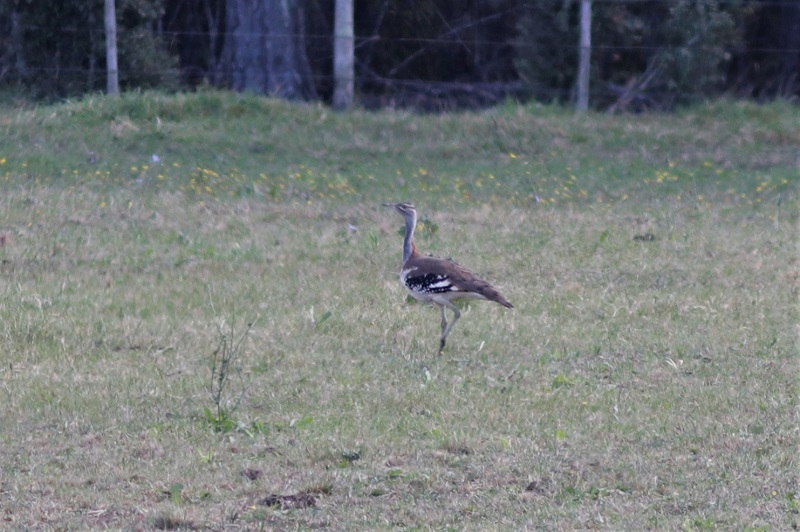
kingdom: Animalia
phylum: Chordata
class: Aves
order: Otidiformes
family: Otididae
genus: Neotis
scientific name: Neotis denhami
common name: Denham's bustard
